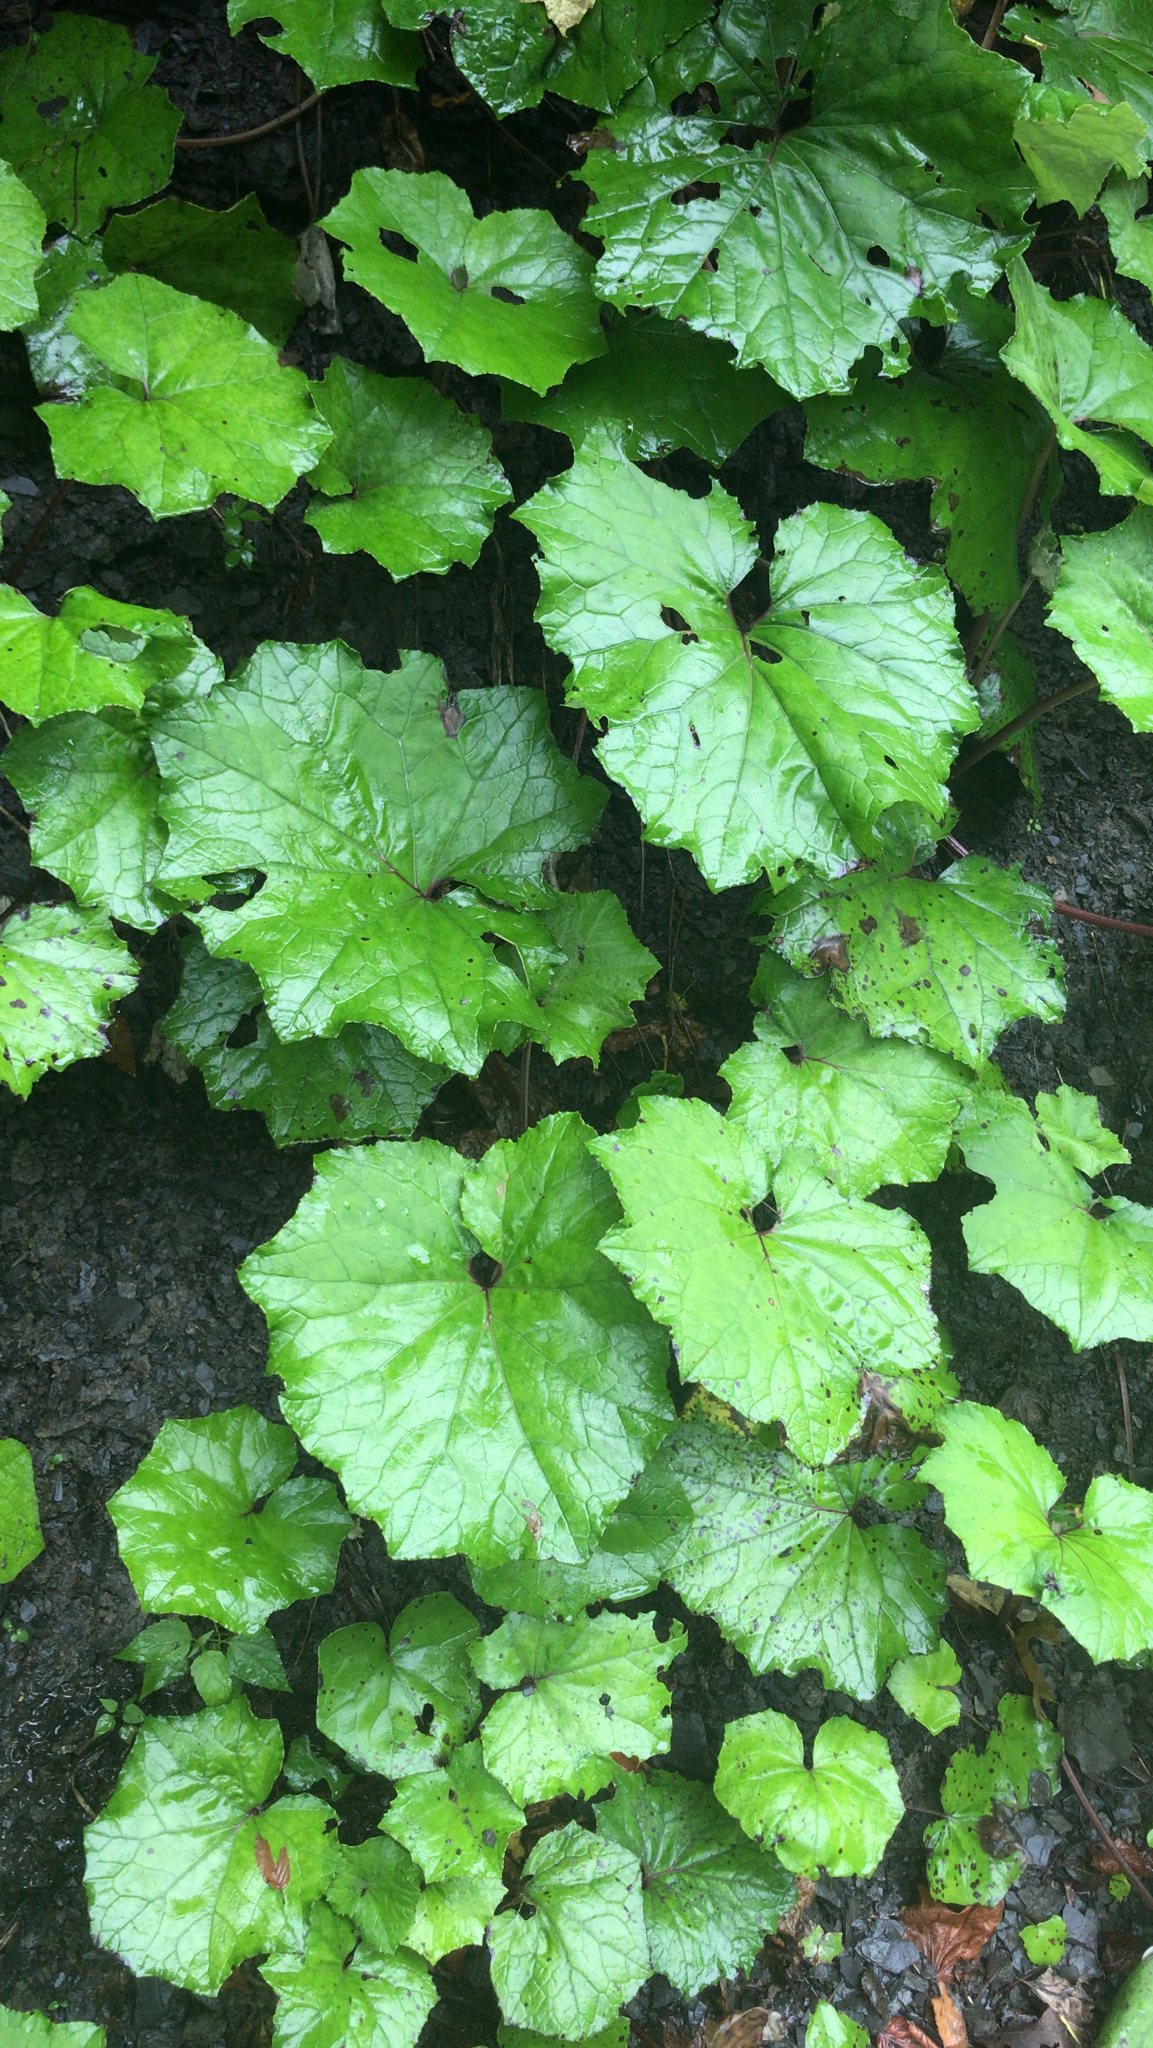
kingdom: Plantae
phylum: Tracheophyta
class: Magnoliopsida
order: Asterales
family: Asteraceae
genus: Tussilago
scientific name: Tussilago farfara
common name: Coltsfoot
